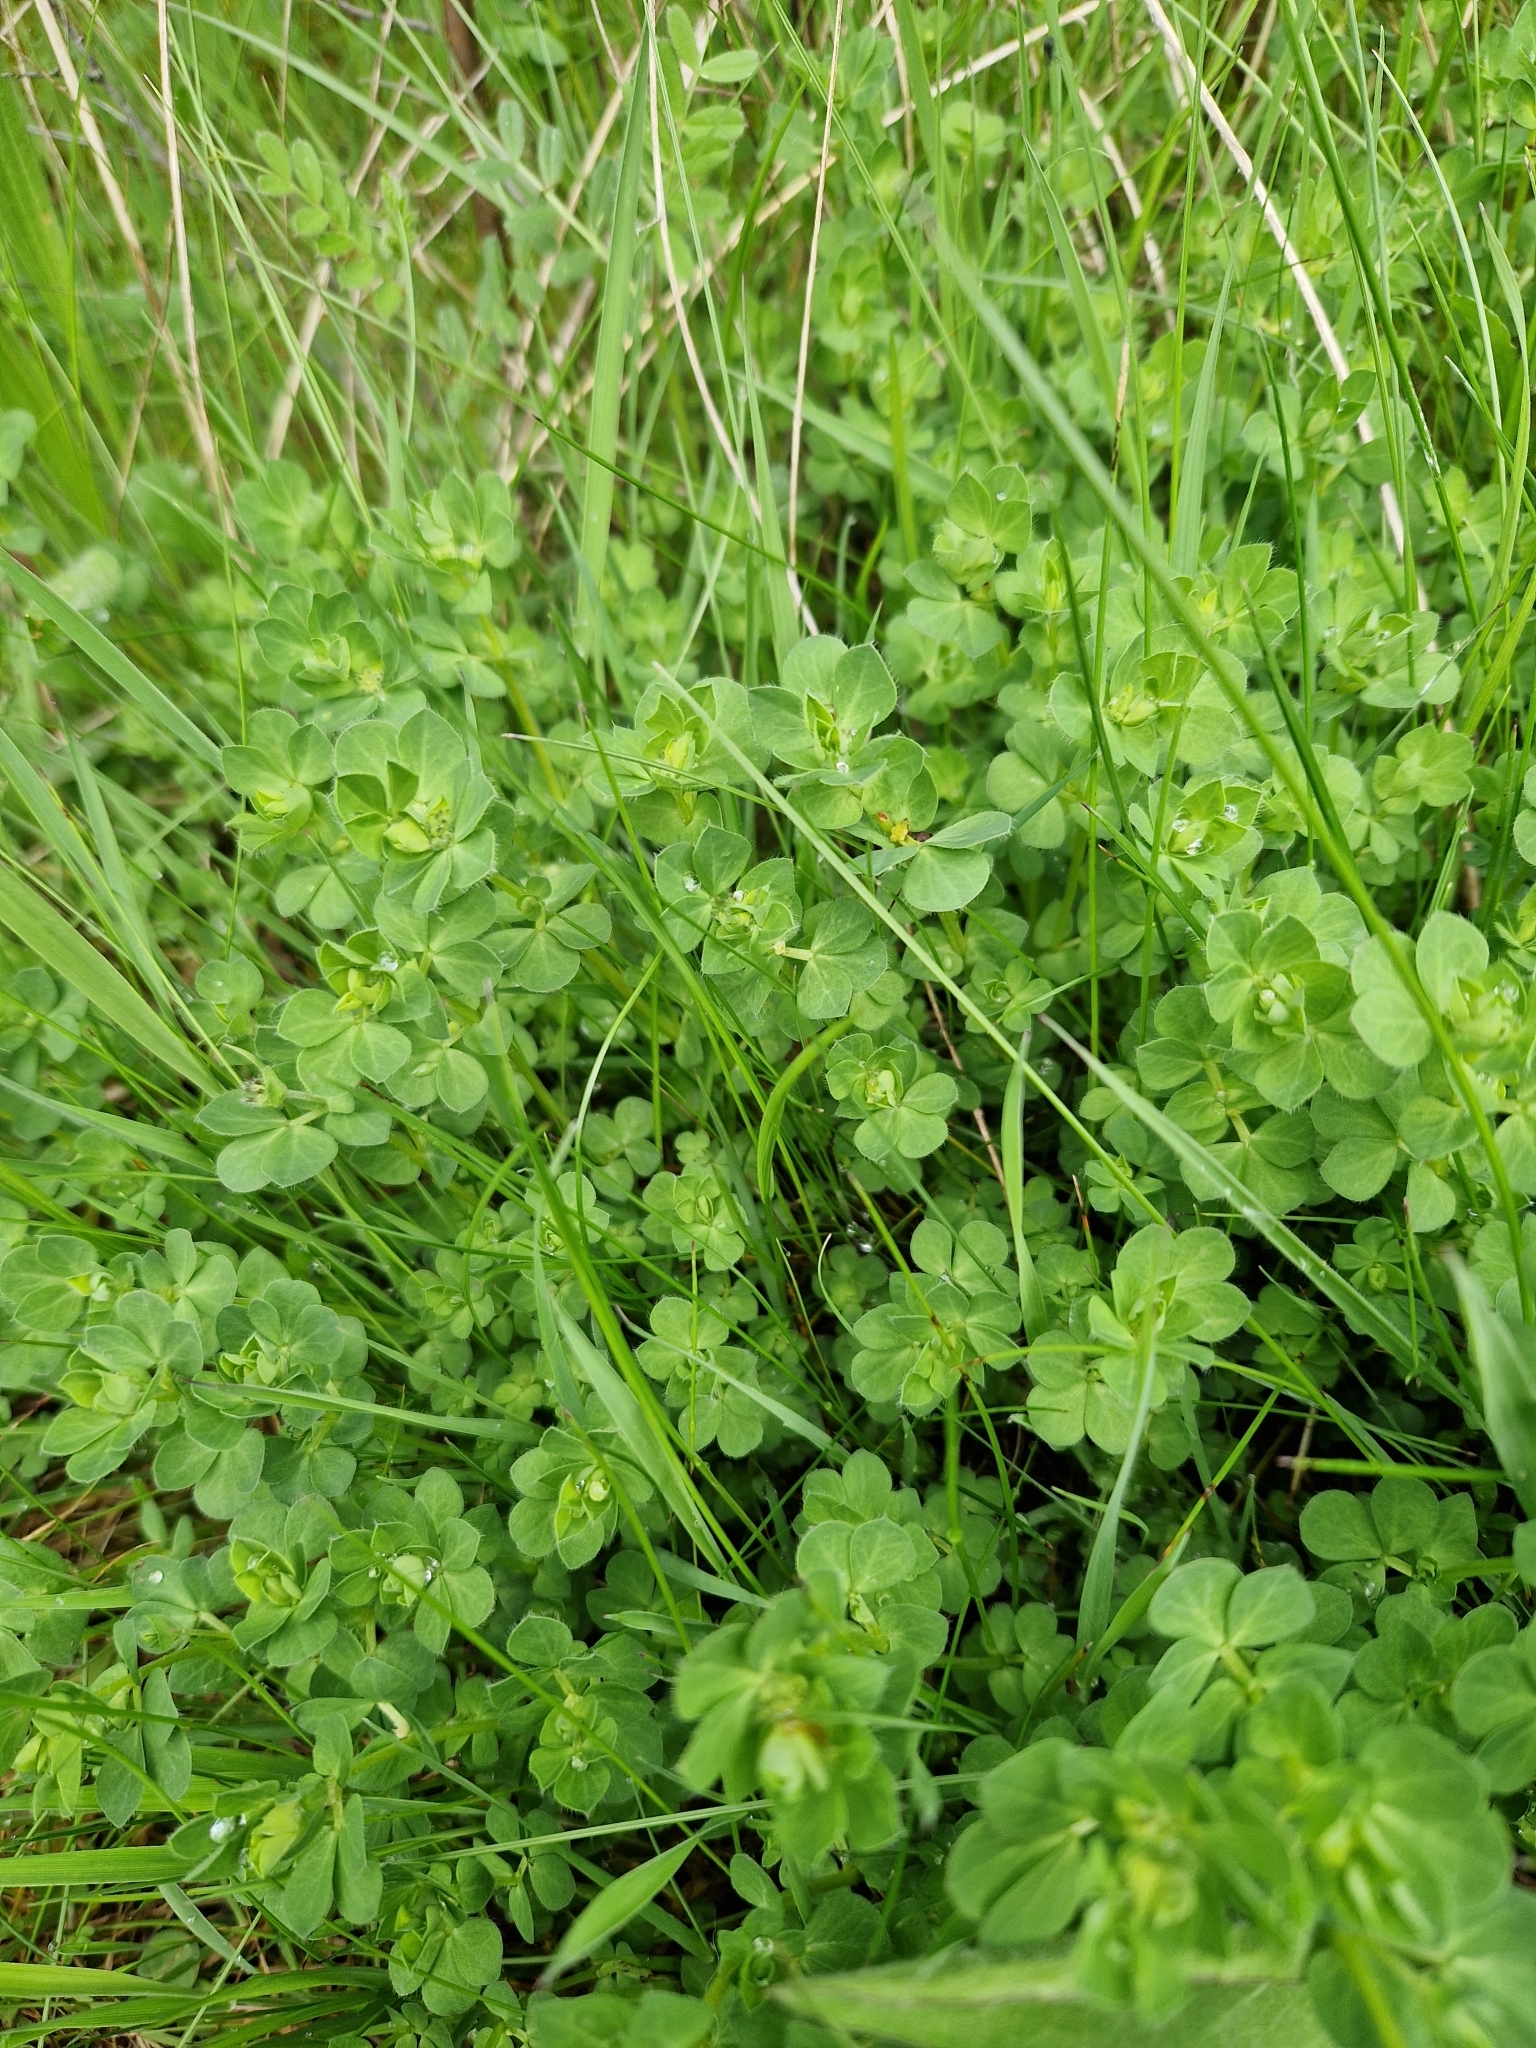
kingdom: Plantae
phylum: Tracheophyta
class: Magnoliopsida
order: Fabales
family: Fabaceae
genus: Lotus
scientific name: Lotus corniculatus
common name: Common bird's-foot-trefoil
